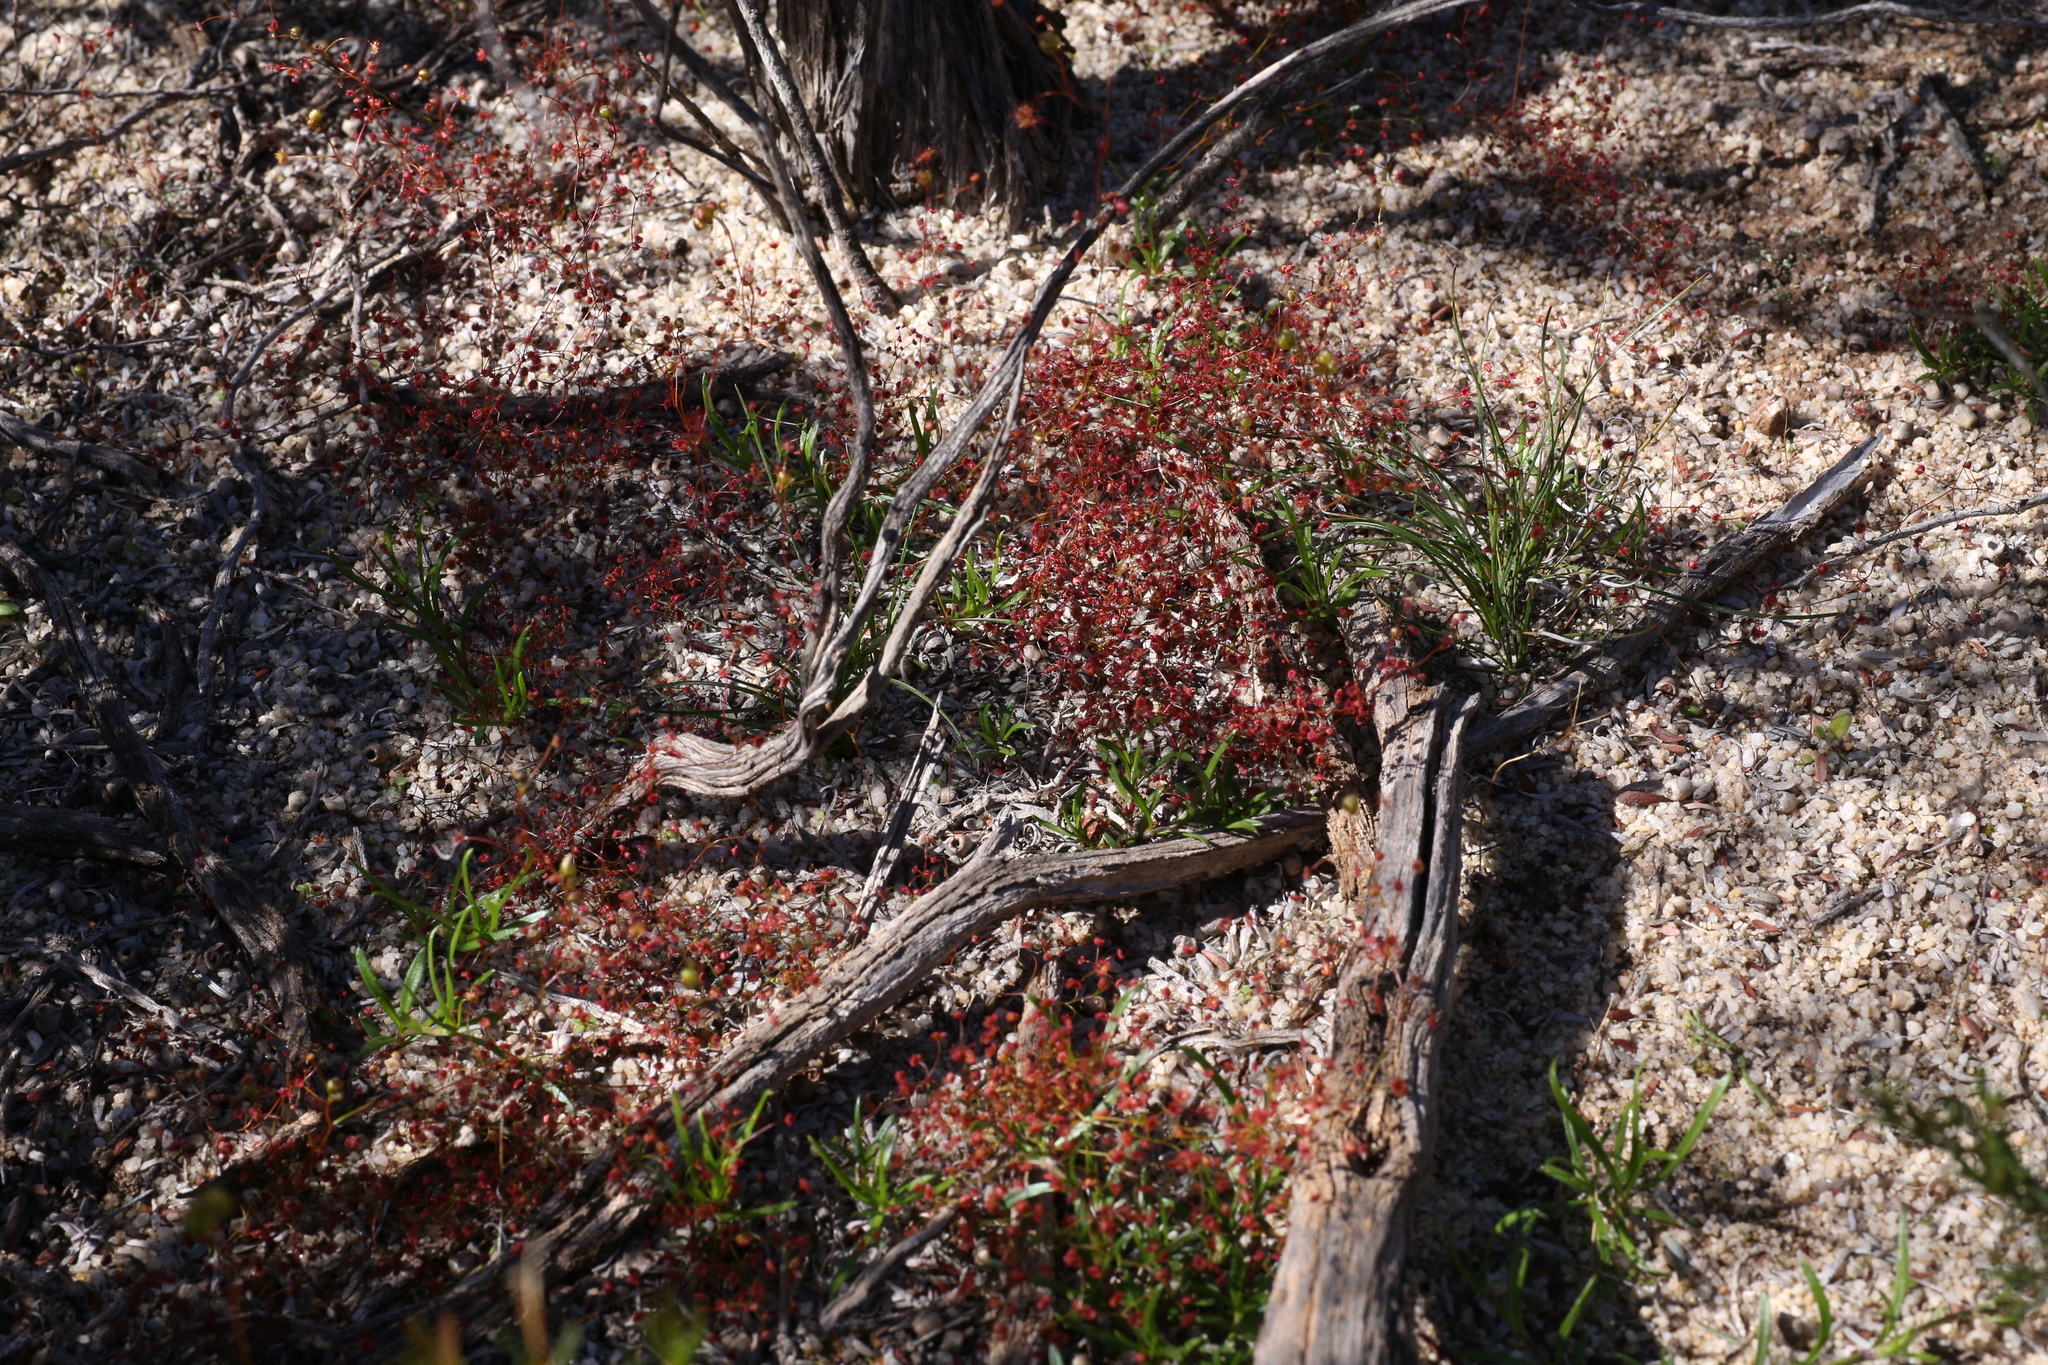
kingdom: Plantae
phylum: Tracheophyta
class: Magnoliopsida
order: Caryophyllales
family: Droseraceae
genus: Drosera
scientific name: Drosera moorei
